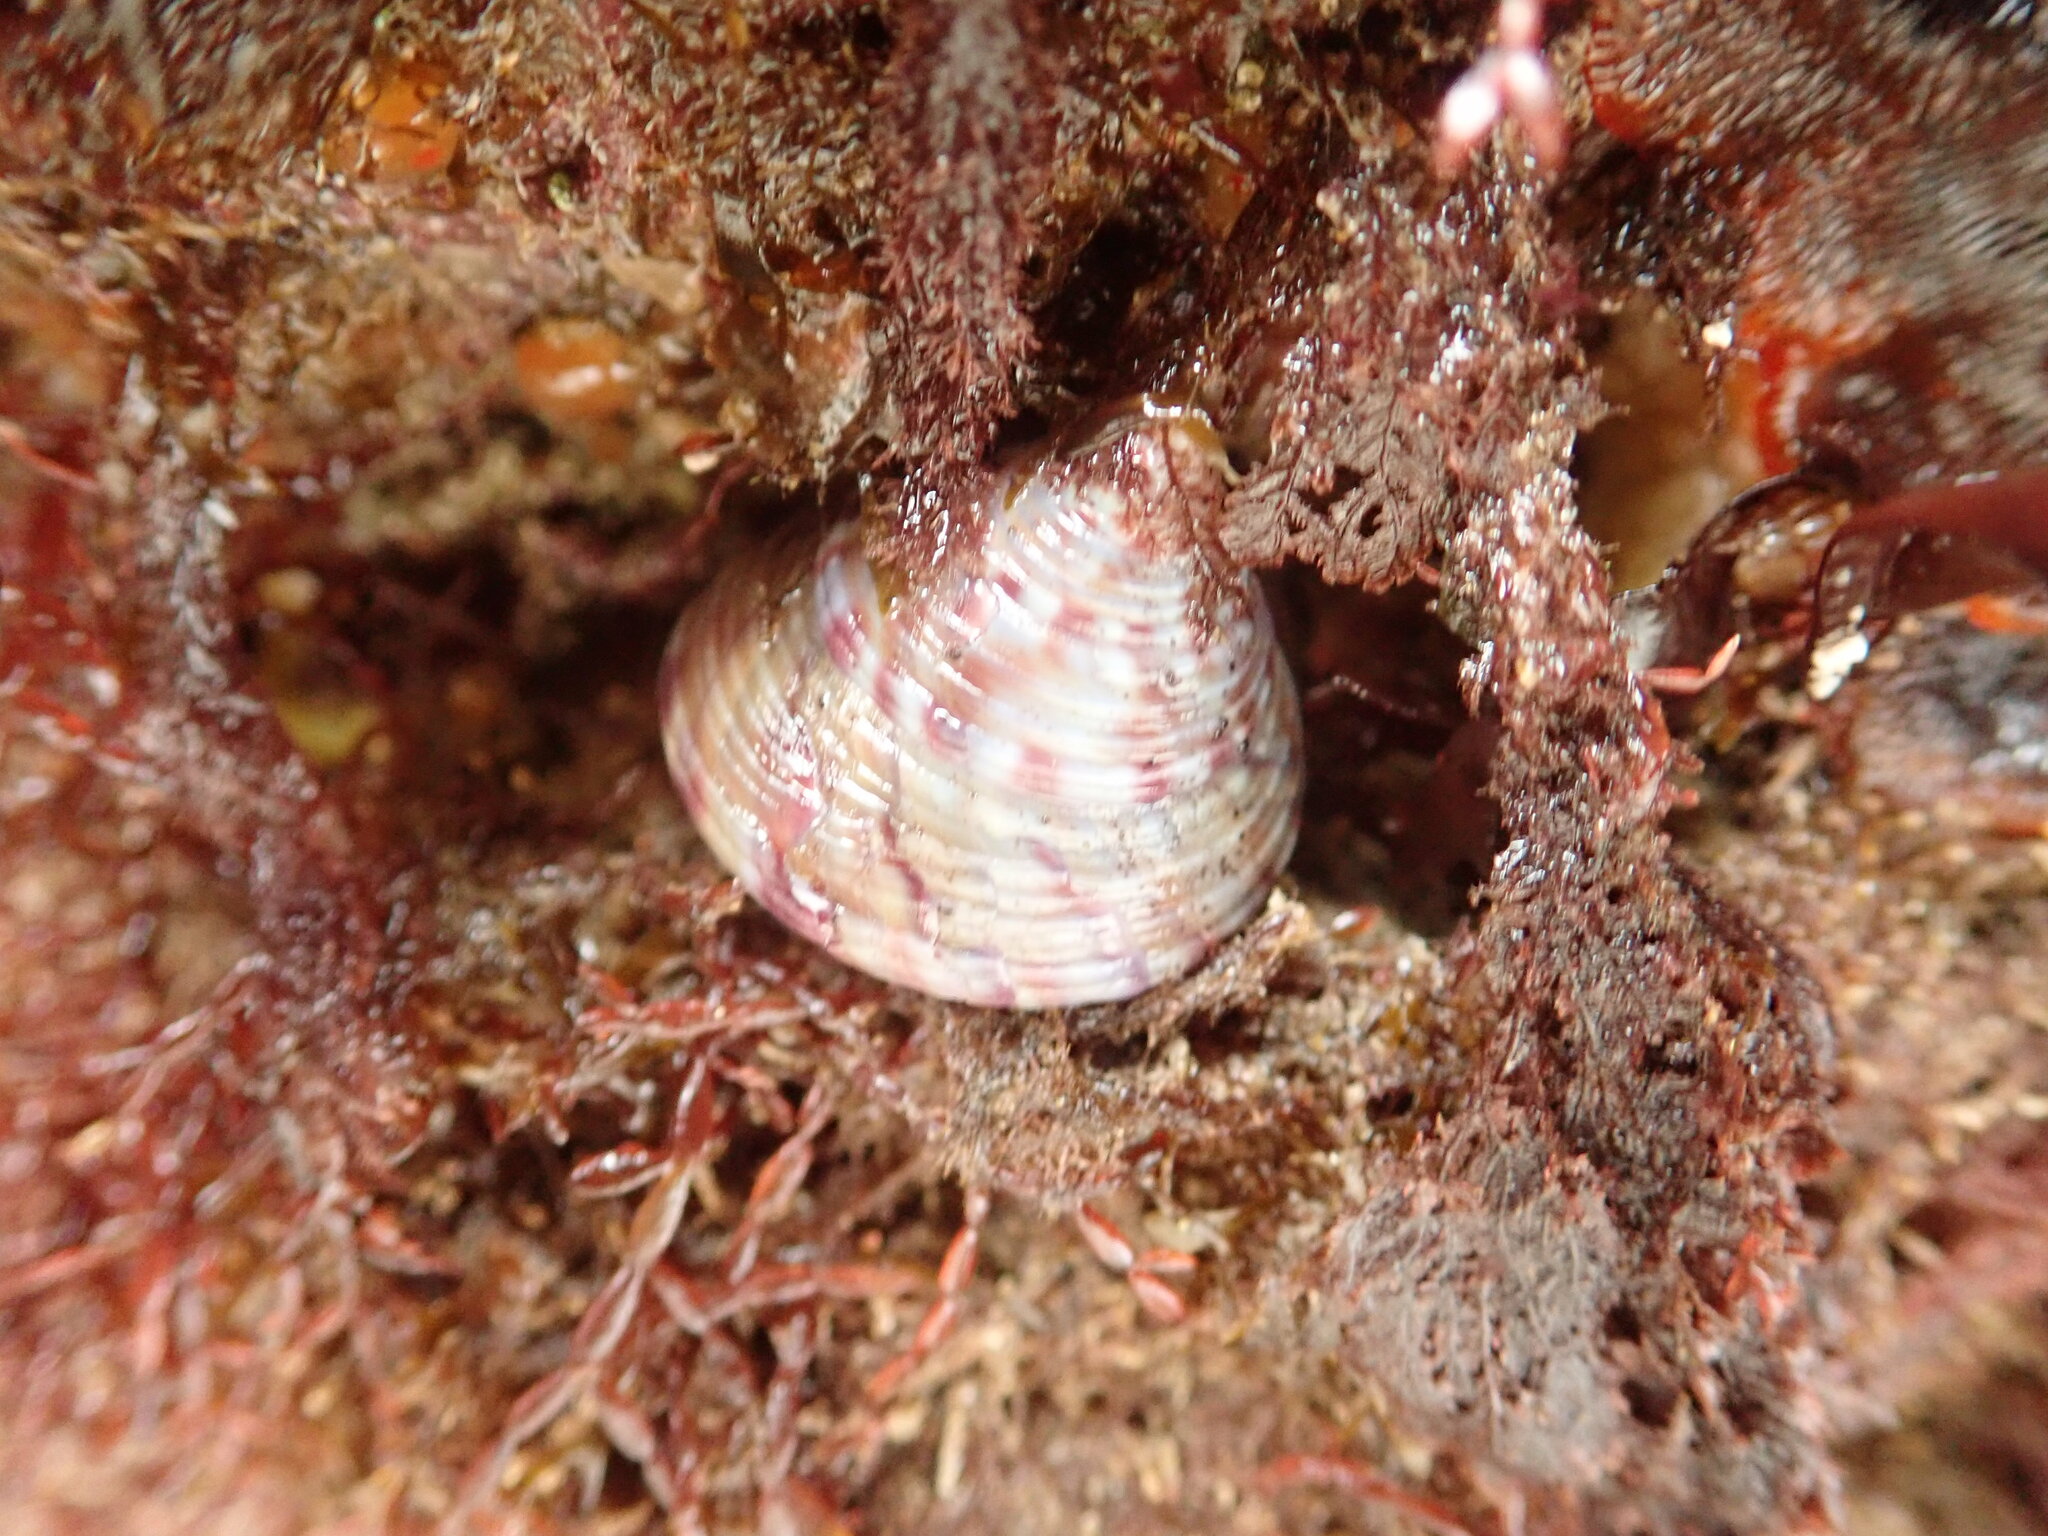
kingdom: Animalia
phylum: Mollusca
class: Gastropoda
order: Trochida
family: Calliostomatidae
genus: Calliostoma
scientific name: Calliostoma zizyphinum
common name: Painted top shell
